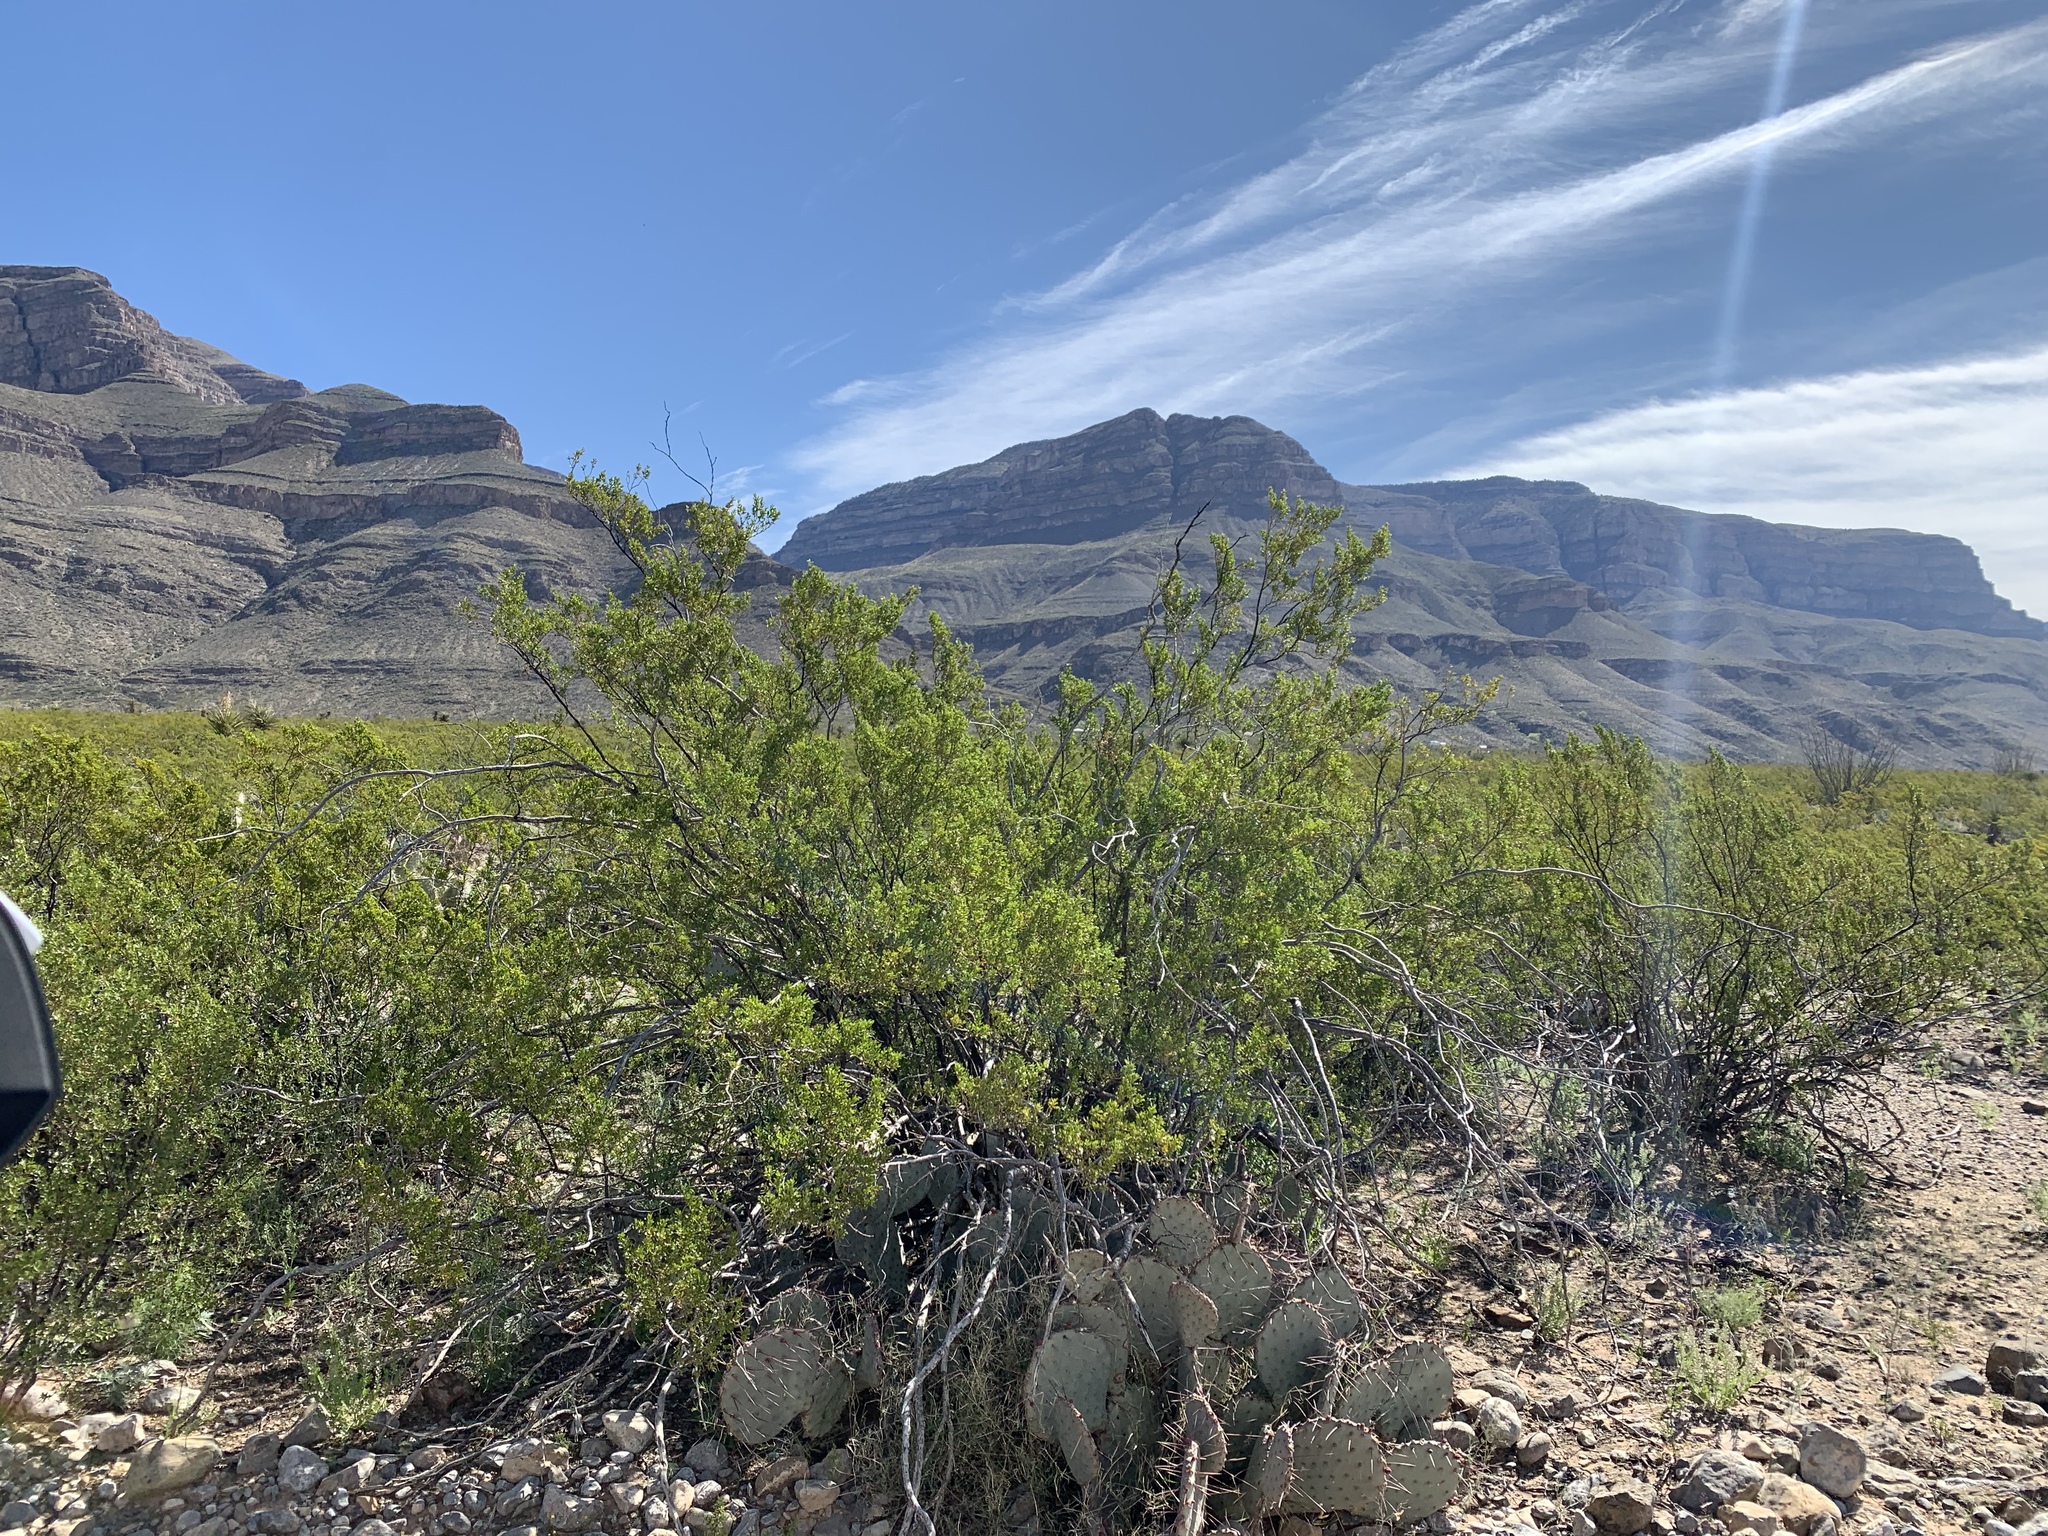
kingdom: Plantae
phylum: Tracheophyta
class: Magnoliopsida
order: Zygophyllales
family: Zygophyllaceae
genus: Larrea
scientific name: Larrea tridentata
